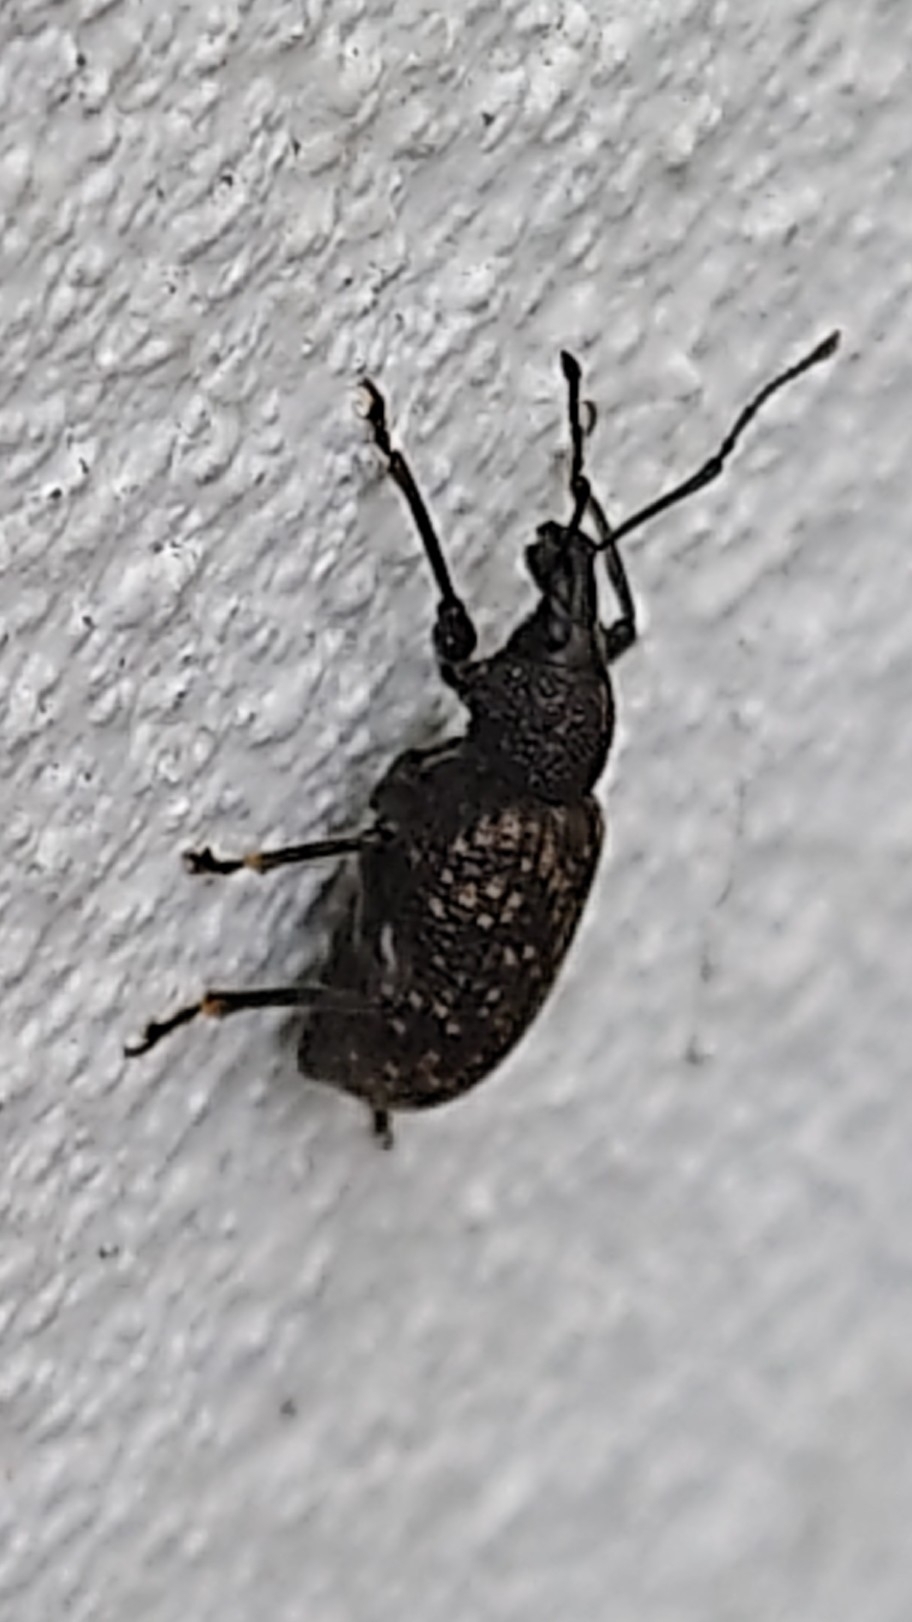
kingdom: Animalia
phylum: Arthropoda
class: Insecta
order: Coleoptera
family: Curculionidae
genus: Otiorhynchus
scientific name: Otiorhynchus sulcatus
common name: Black vine weevil
